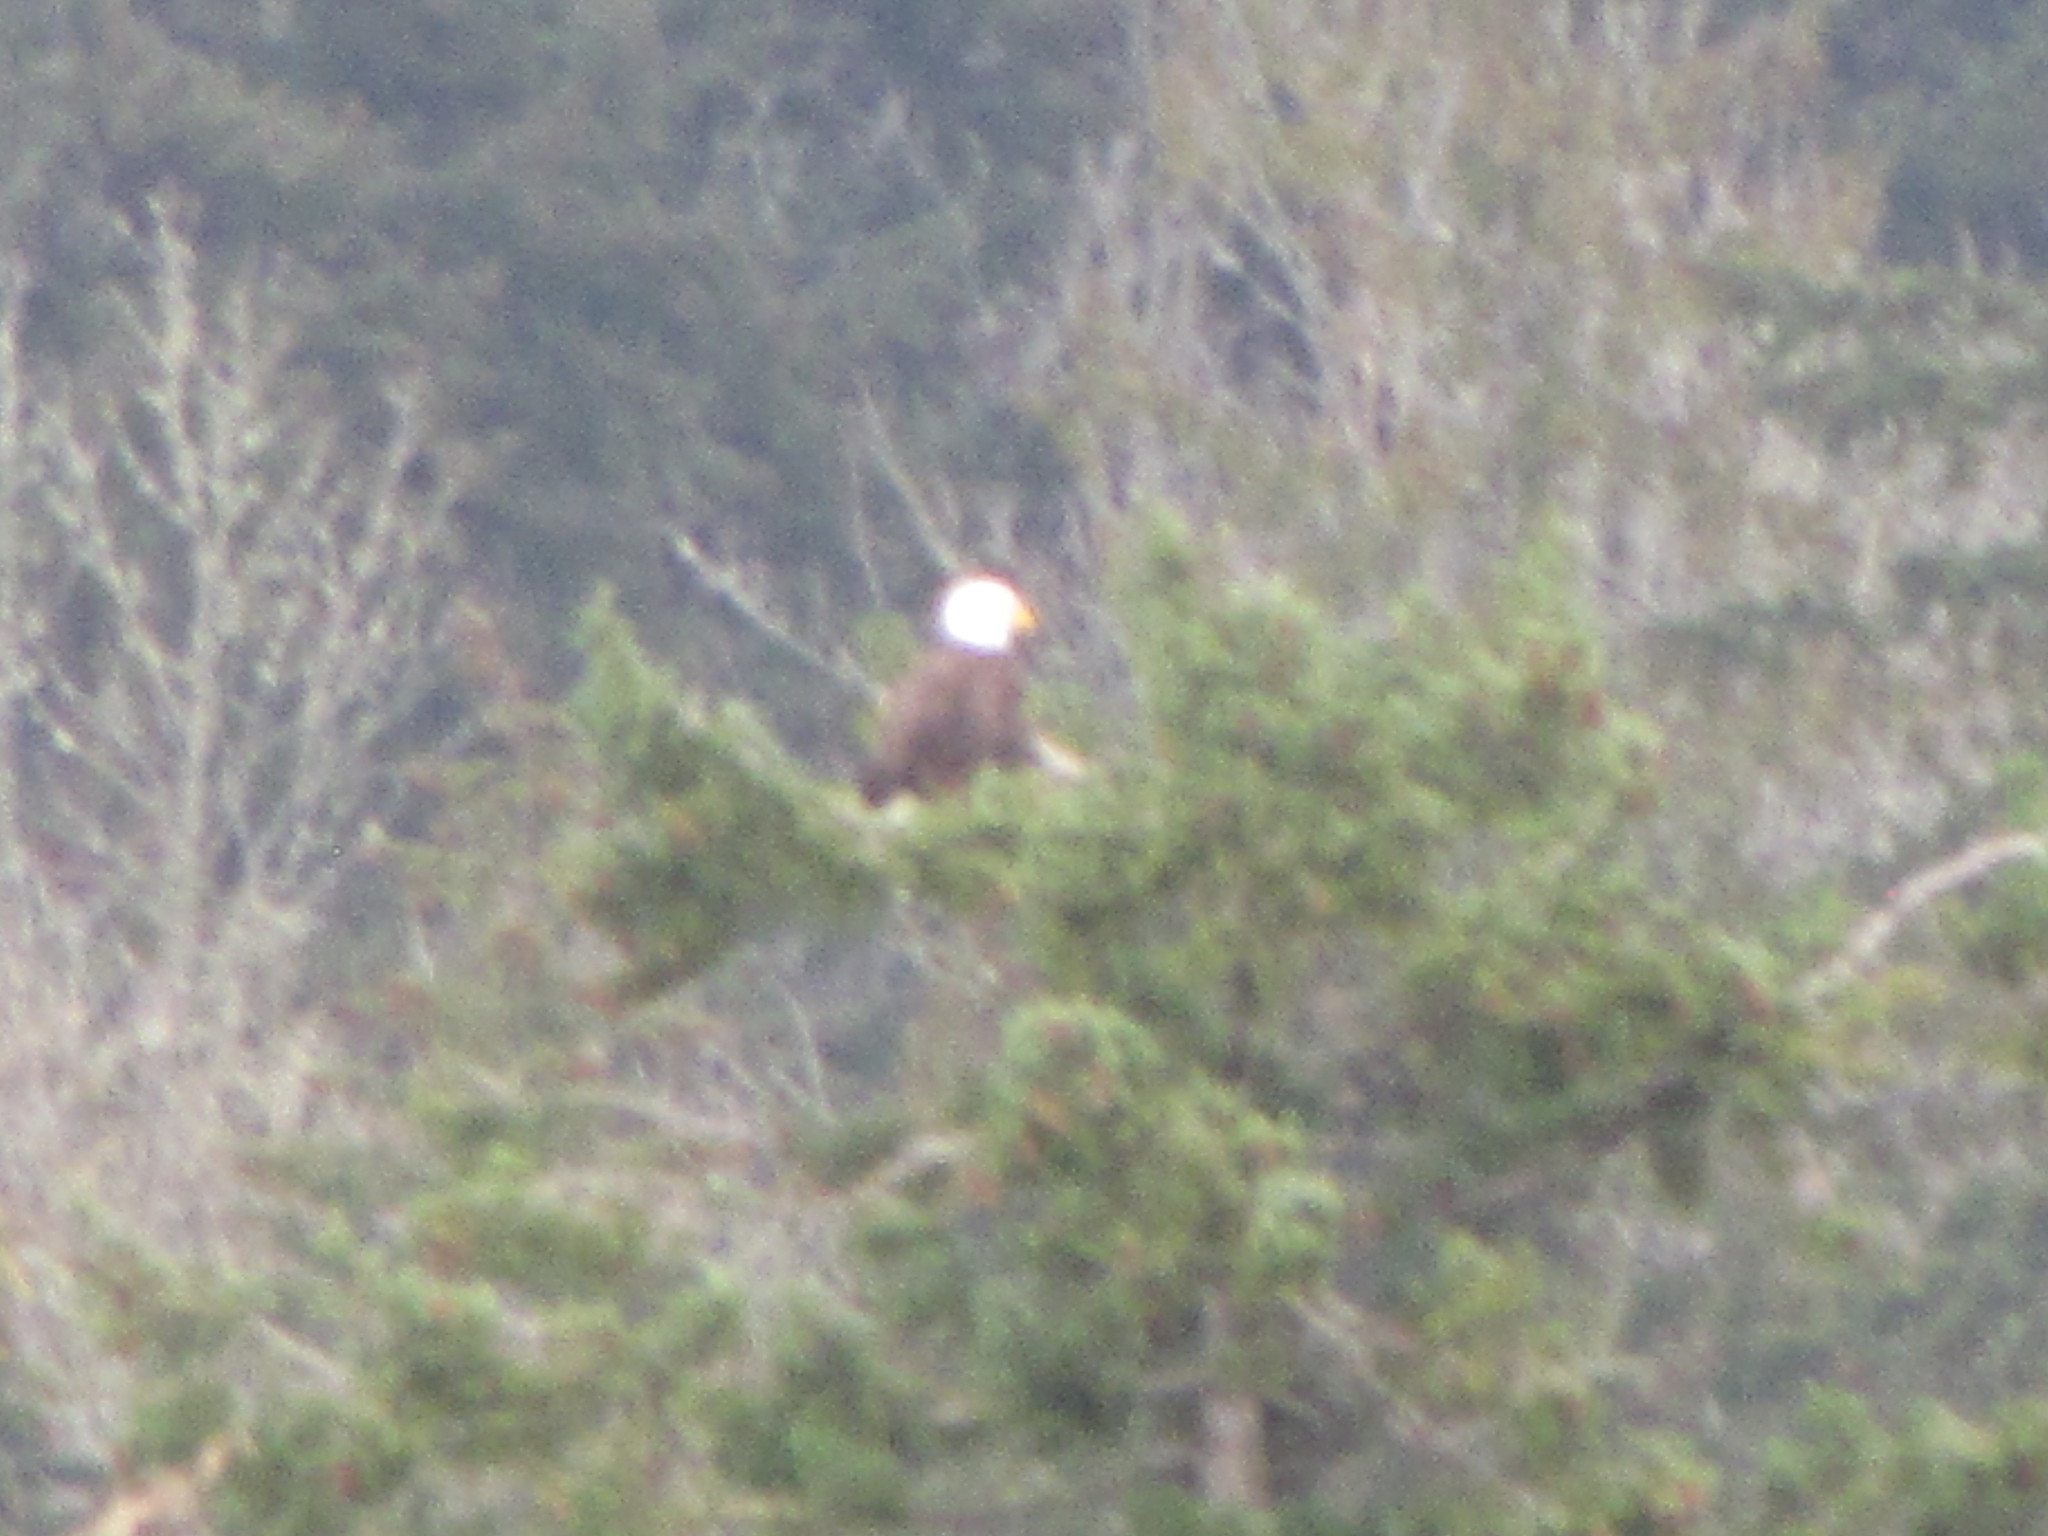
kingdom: Animalia
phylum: Chordata
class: Aves
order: Accipitriformes
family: Accipitridae
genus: Haliaeetus
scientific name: Haliaeetus leucocephalus
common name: Bald eagle
